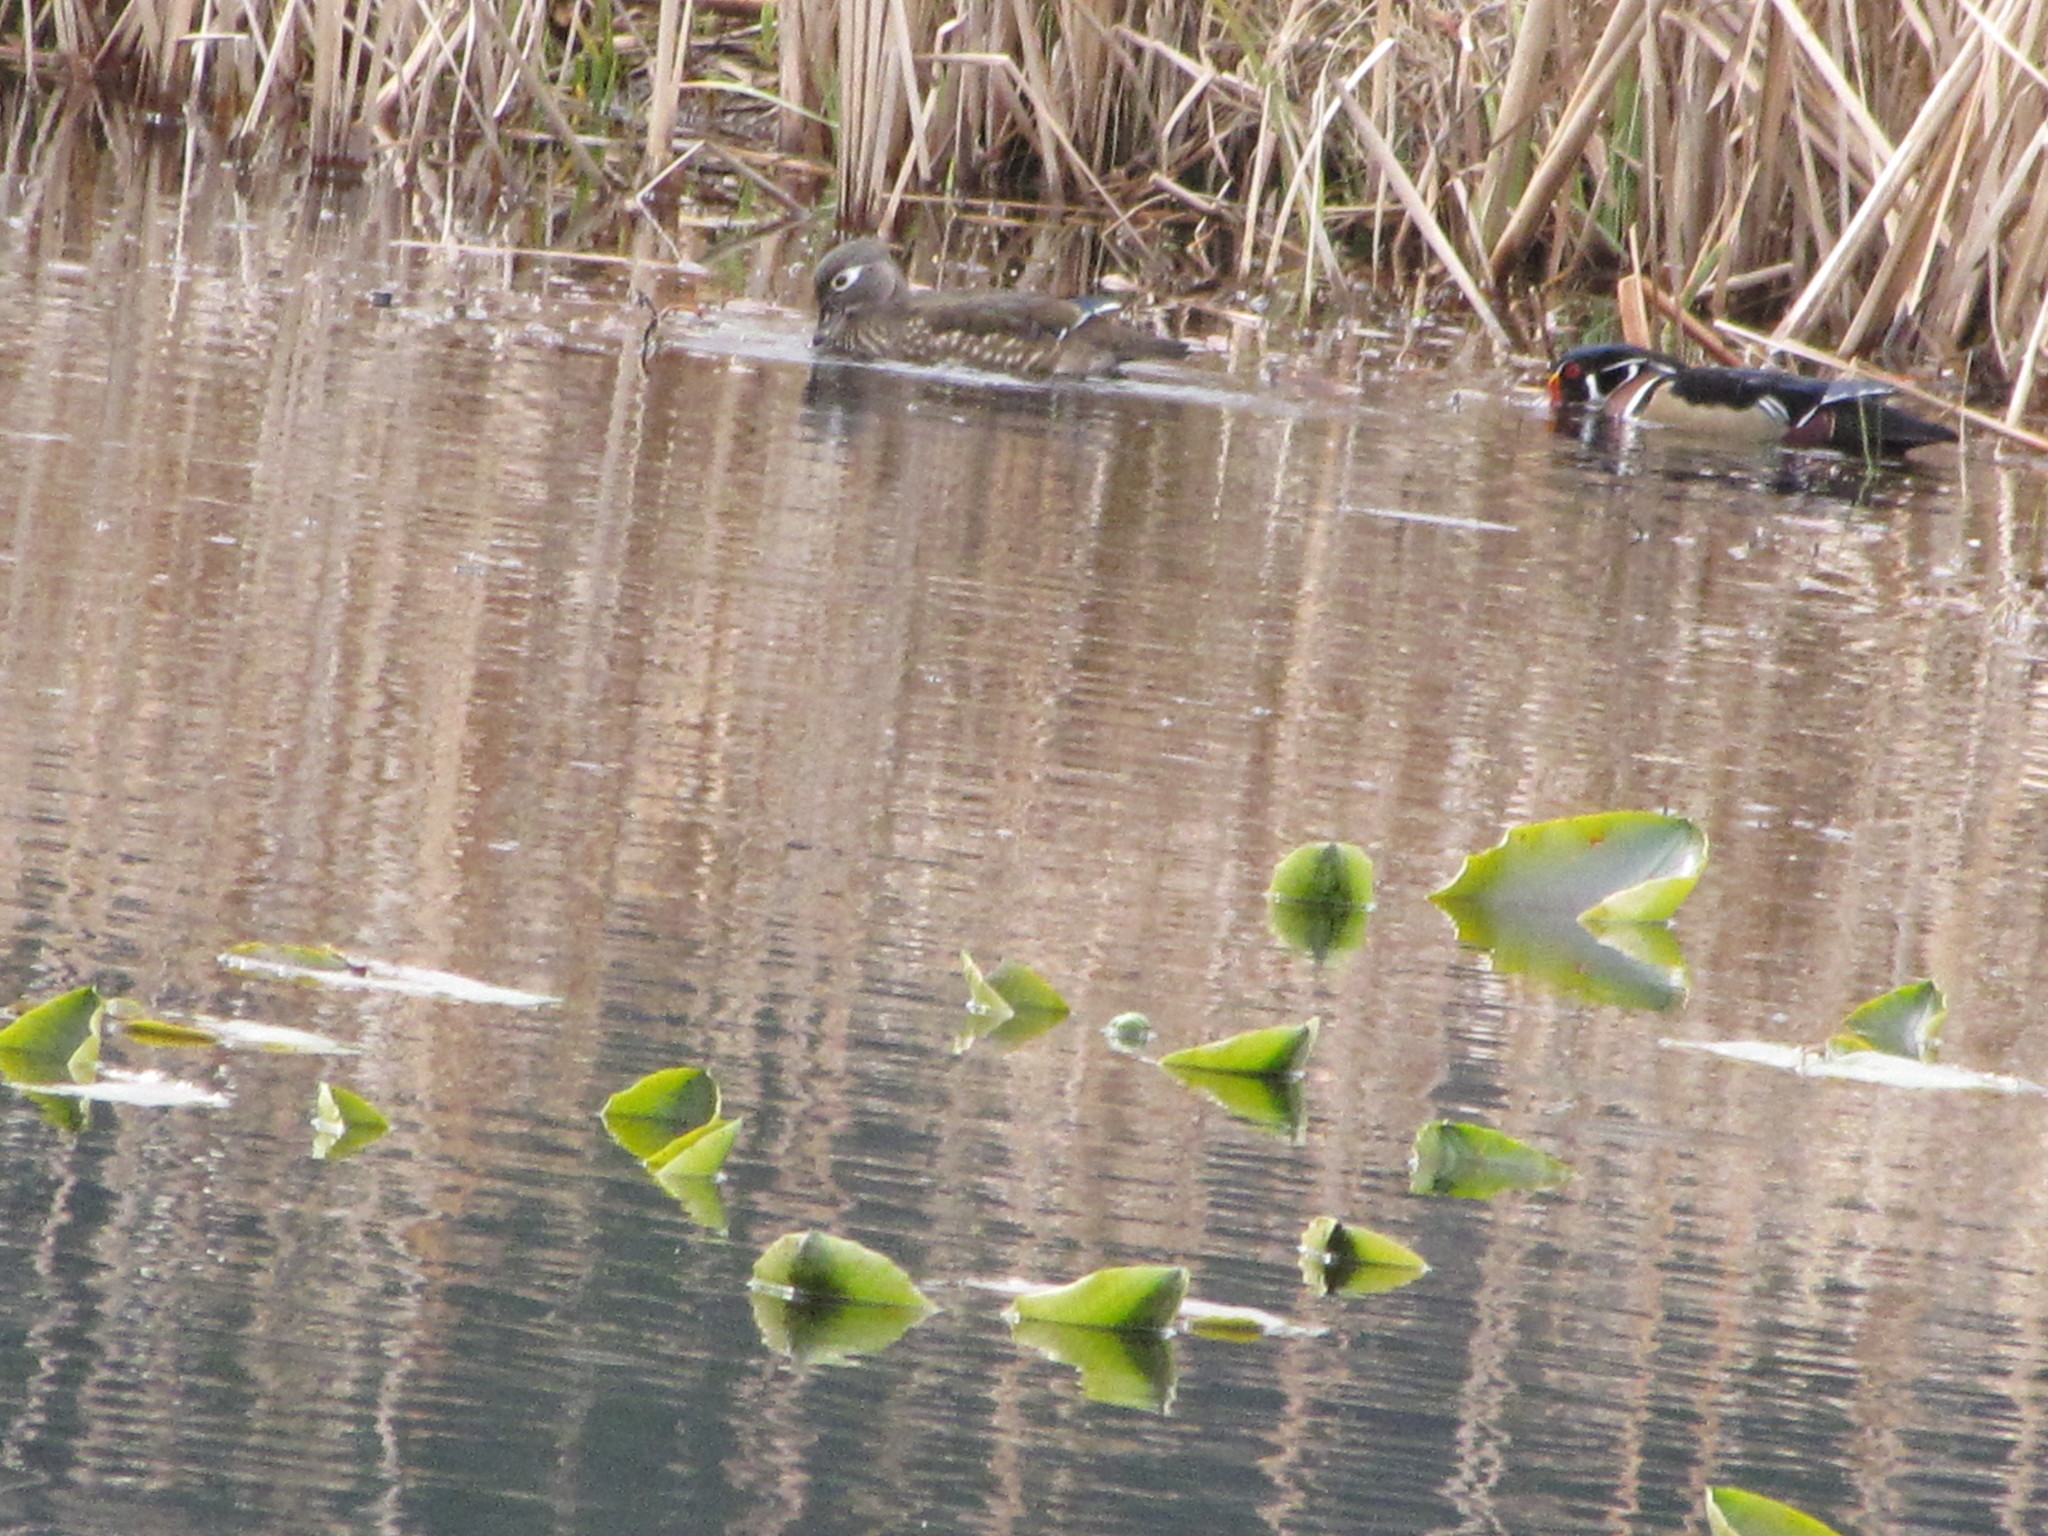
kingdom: Animalia
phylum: Chordata
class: Aves
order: Anseriformes
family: Anatidae
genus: Aix
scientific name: Aix sponsa
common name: Wood duck
